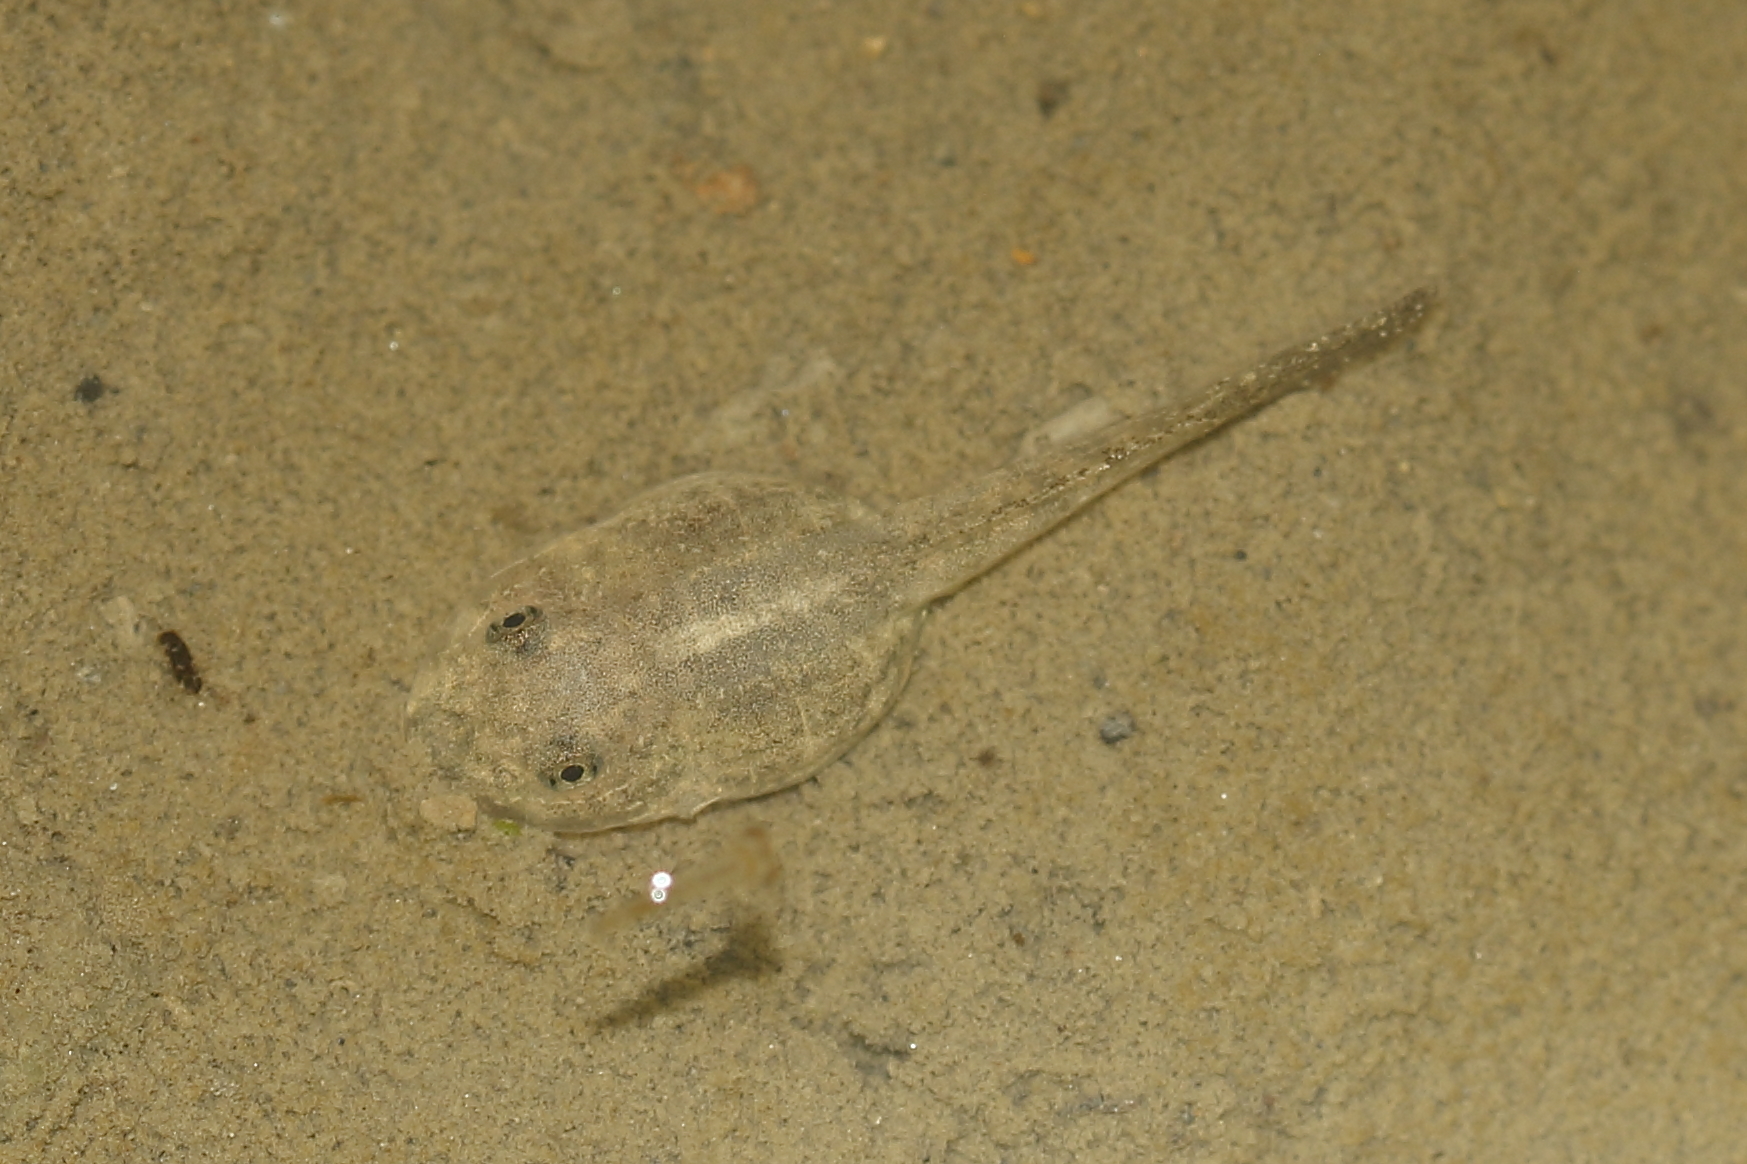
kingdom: Animalia
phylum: Chordata
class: Amphibia
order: Anura
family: Rhacophoridae
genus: Buergeria
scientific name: Buergeria otai
